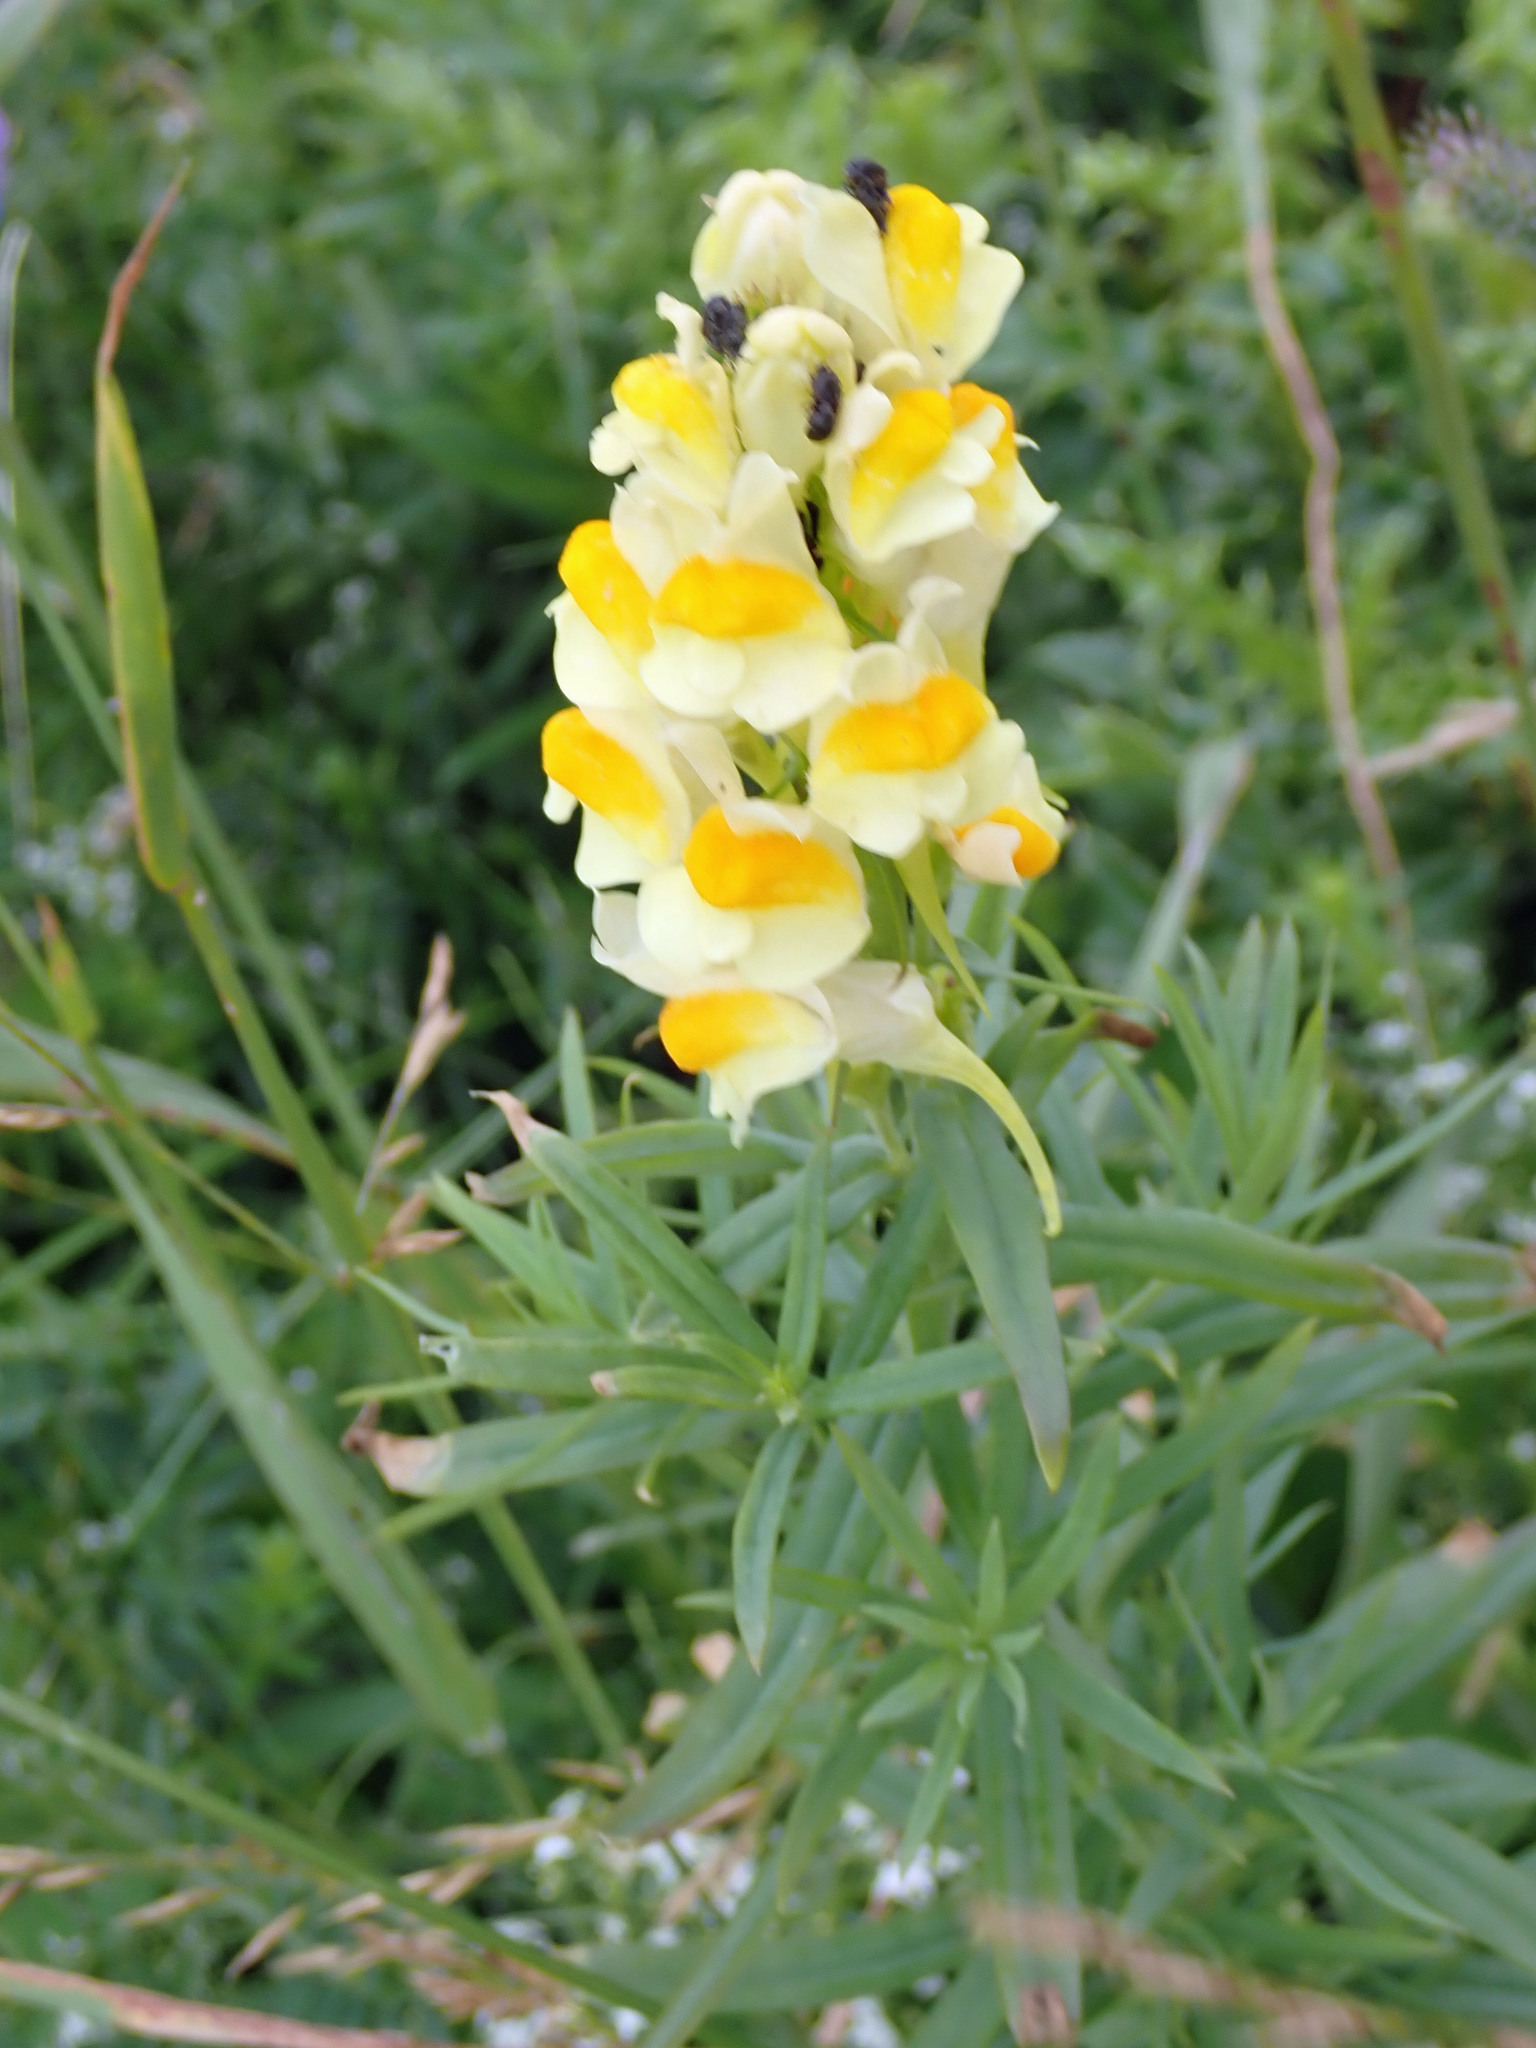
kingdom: Plantae
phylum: Tracheophyta
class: Magnoliopsida
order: Lamiales
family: Plantaginaceae
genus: Linaria
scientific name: Linaria vulgaris
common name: Butter and eggs
